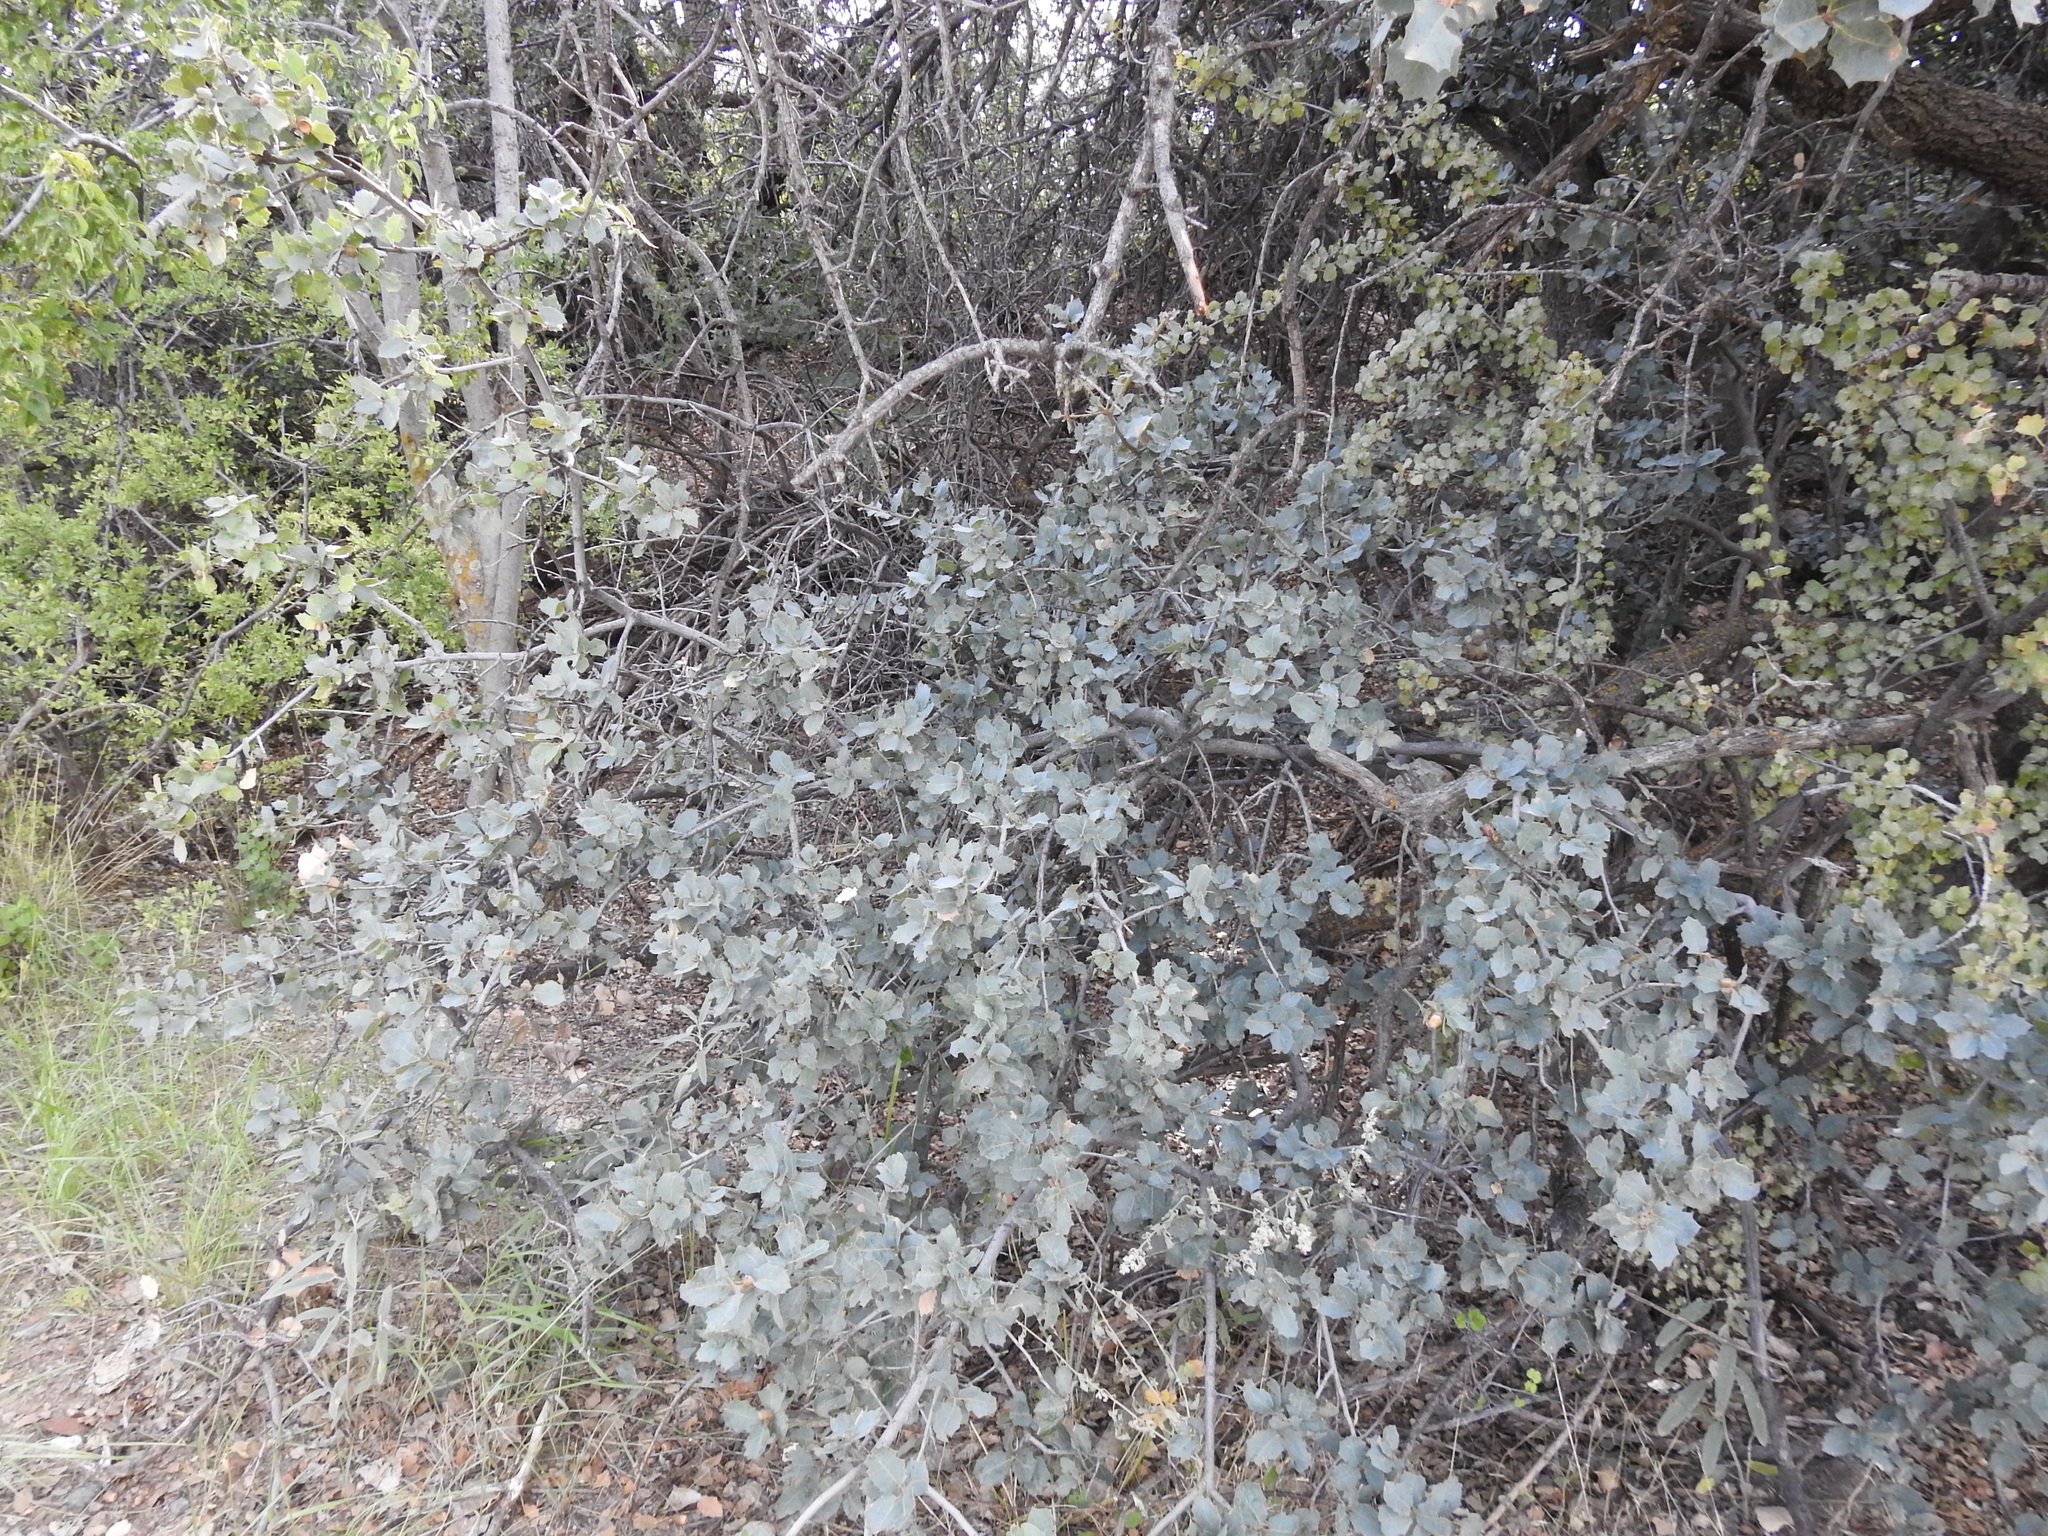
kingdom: Plantae
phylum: Tracheophyta
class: Magnoliopsida
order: Fagales
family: Fagaceae
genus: Quercus
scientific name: Quercus turbinella
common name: Sonoran scrub oak
